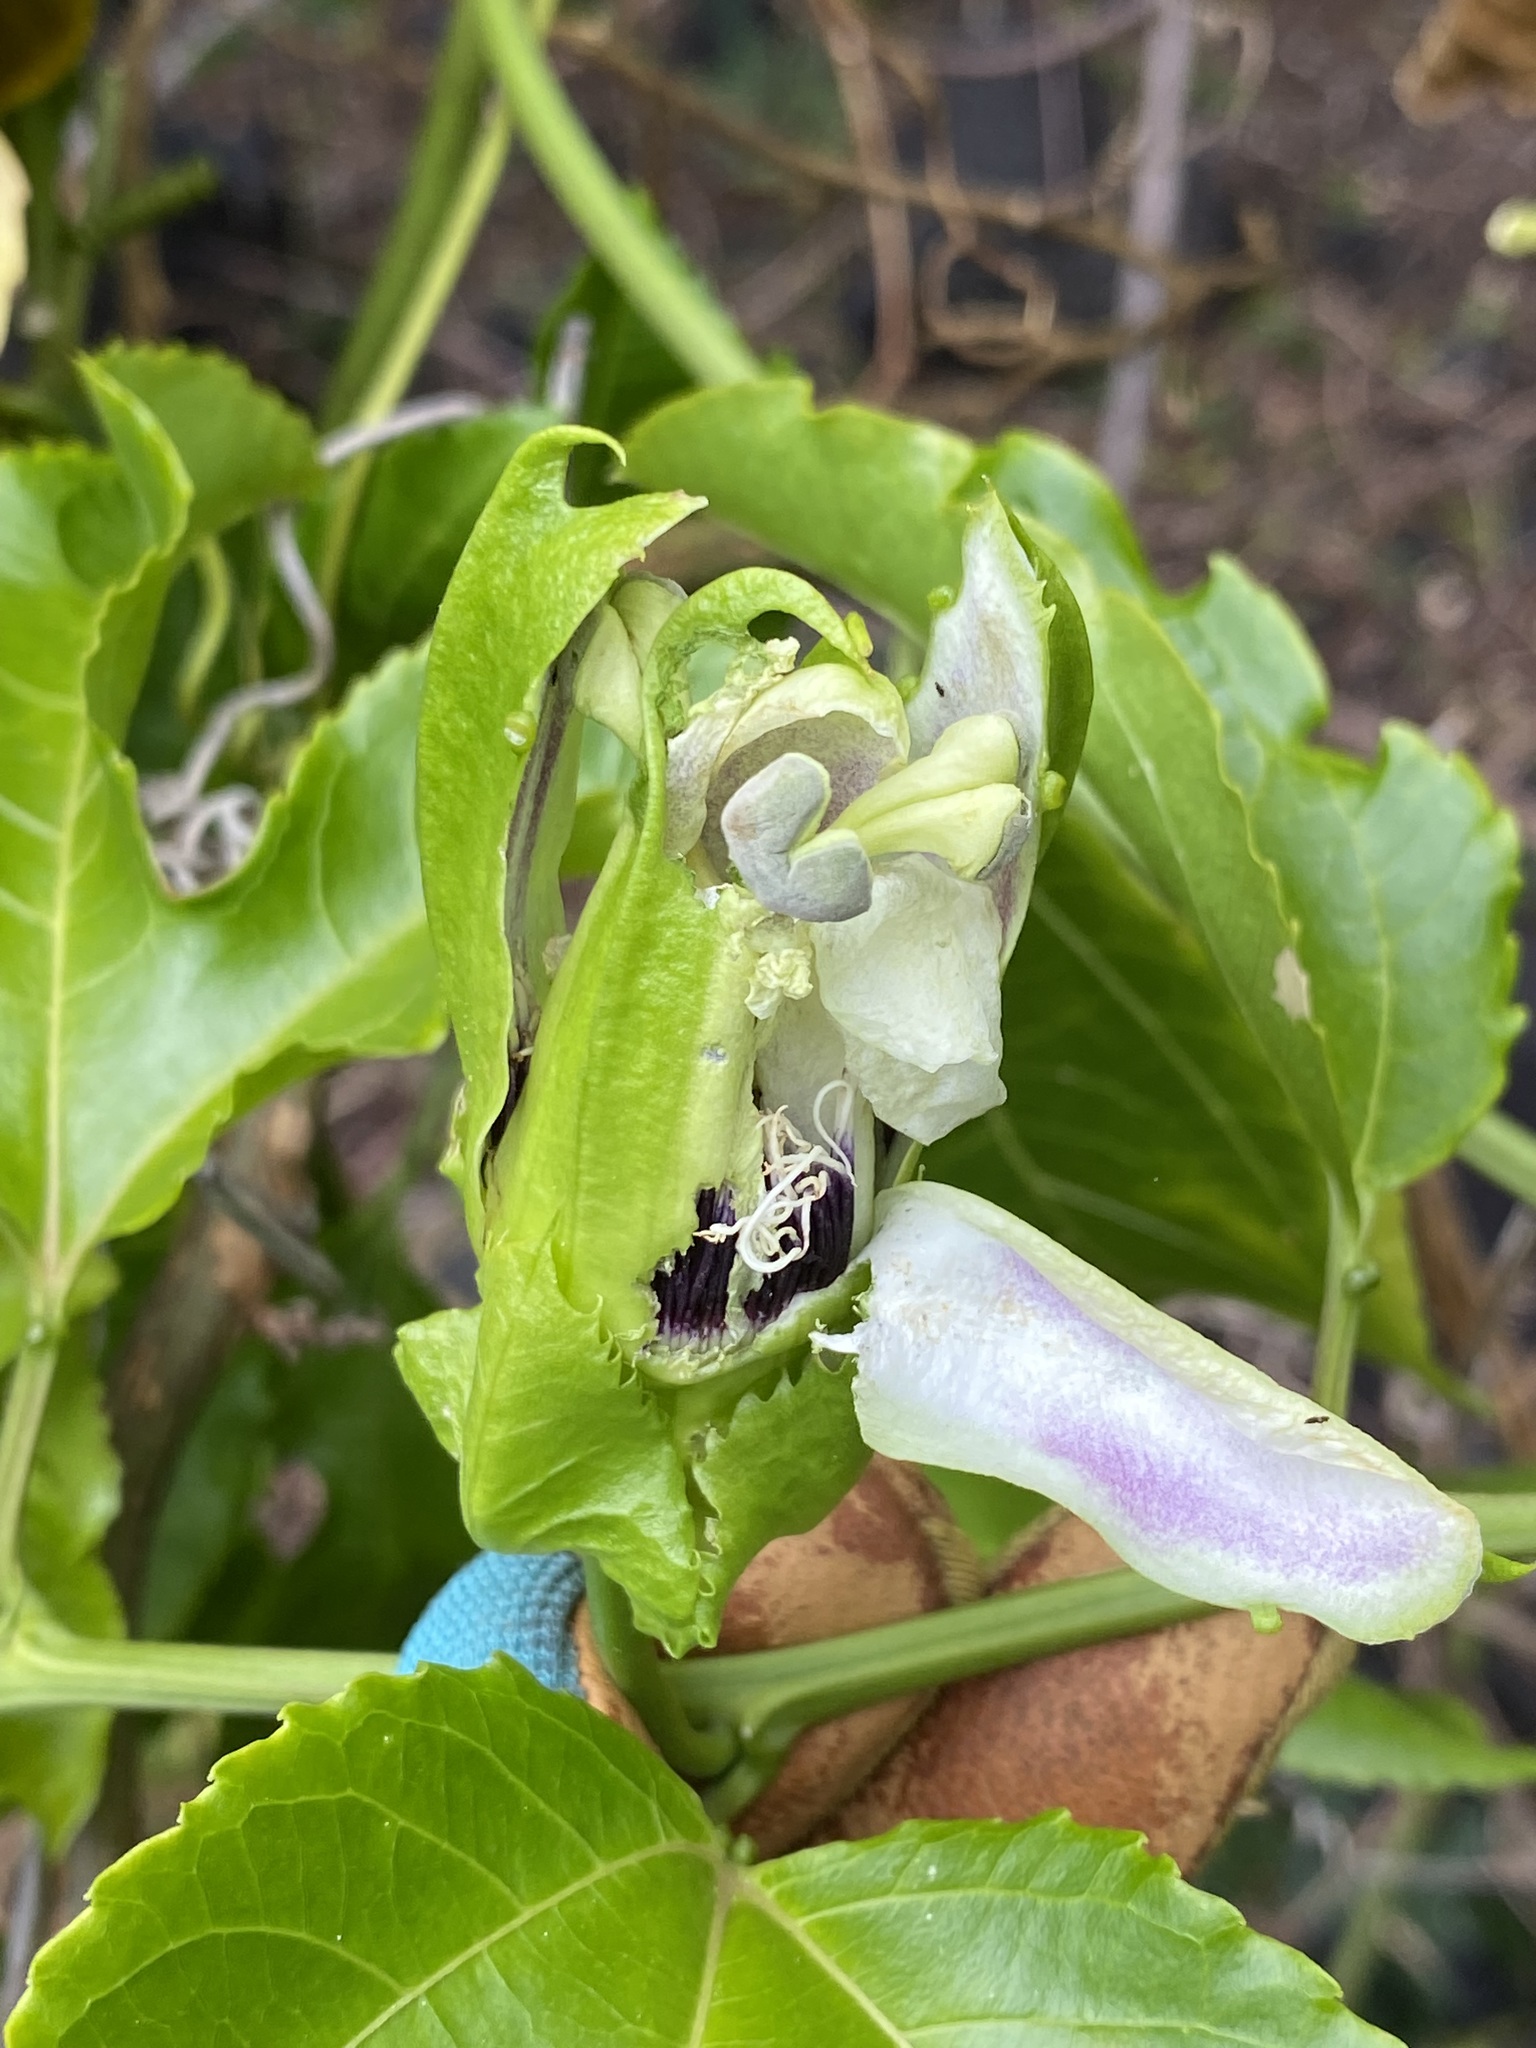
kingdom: Plantae
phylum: Tracheophyta
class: Magnoliopsida
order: Malpighiales
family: Passifloraceae
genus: Passiflora
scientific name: Passiflora edulis
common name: Purple granadilla
